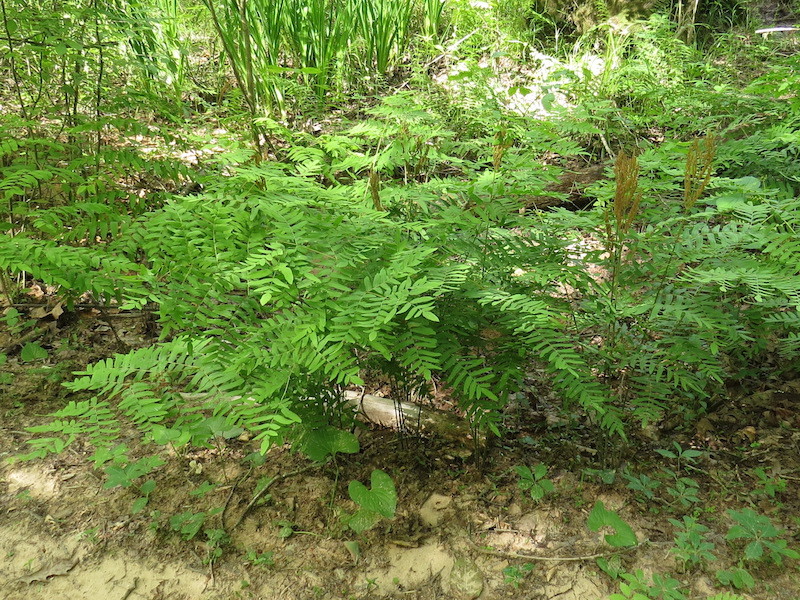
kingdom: Plantae
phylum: Tracheophyta
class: Polypodiopsida
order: Osmundales
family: Osmundaceae
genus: Osmunda
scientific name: Osmunda spectabilis
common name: American royal fern
